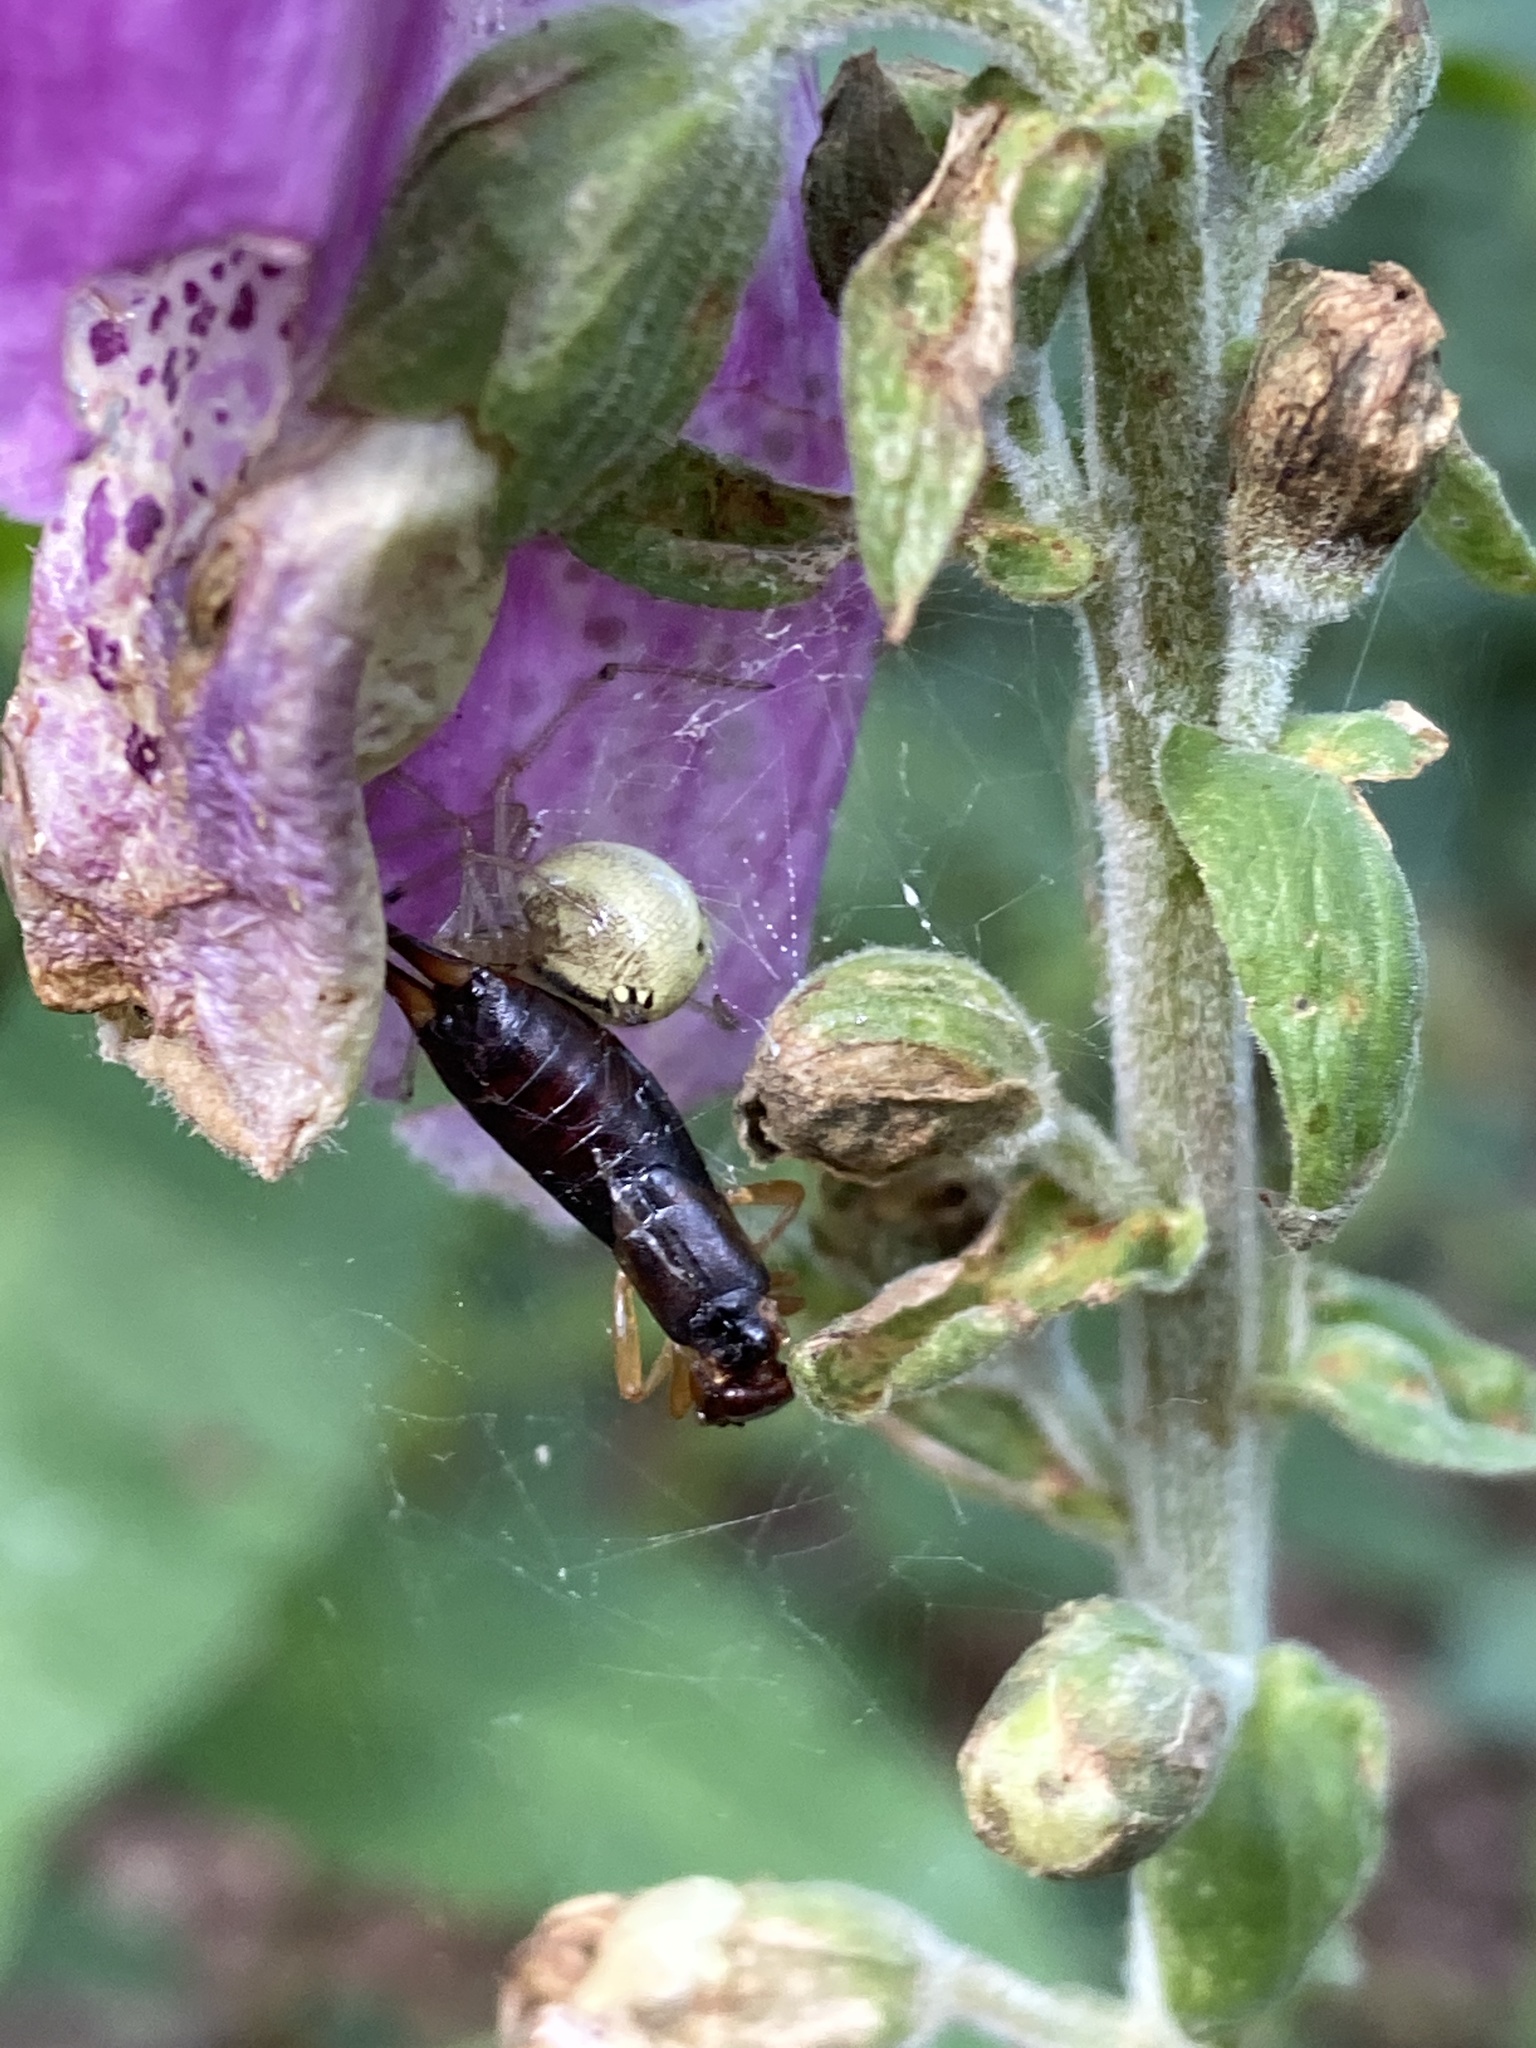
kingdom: Animalia
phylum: Arthropoda
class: Insecta
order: Dermaptera
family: Forficulidae
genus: Forficula
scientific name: Forficula
